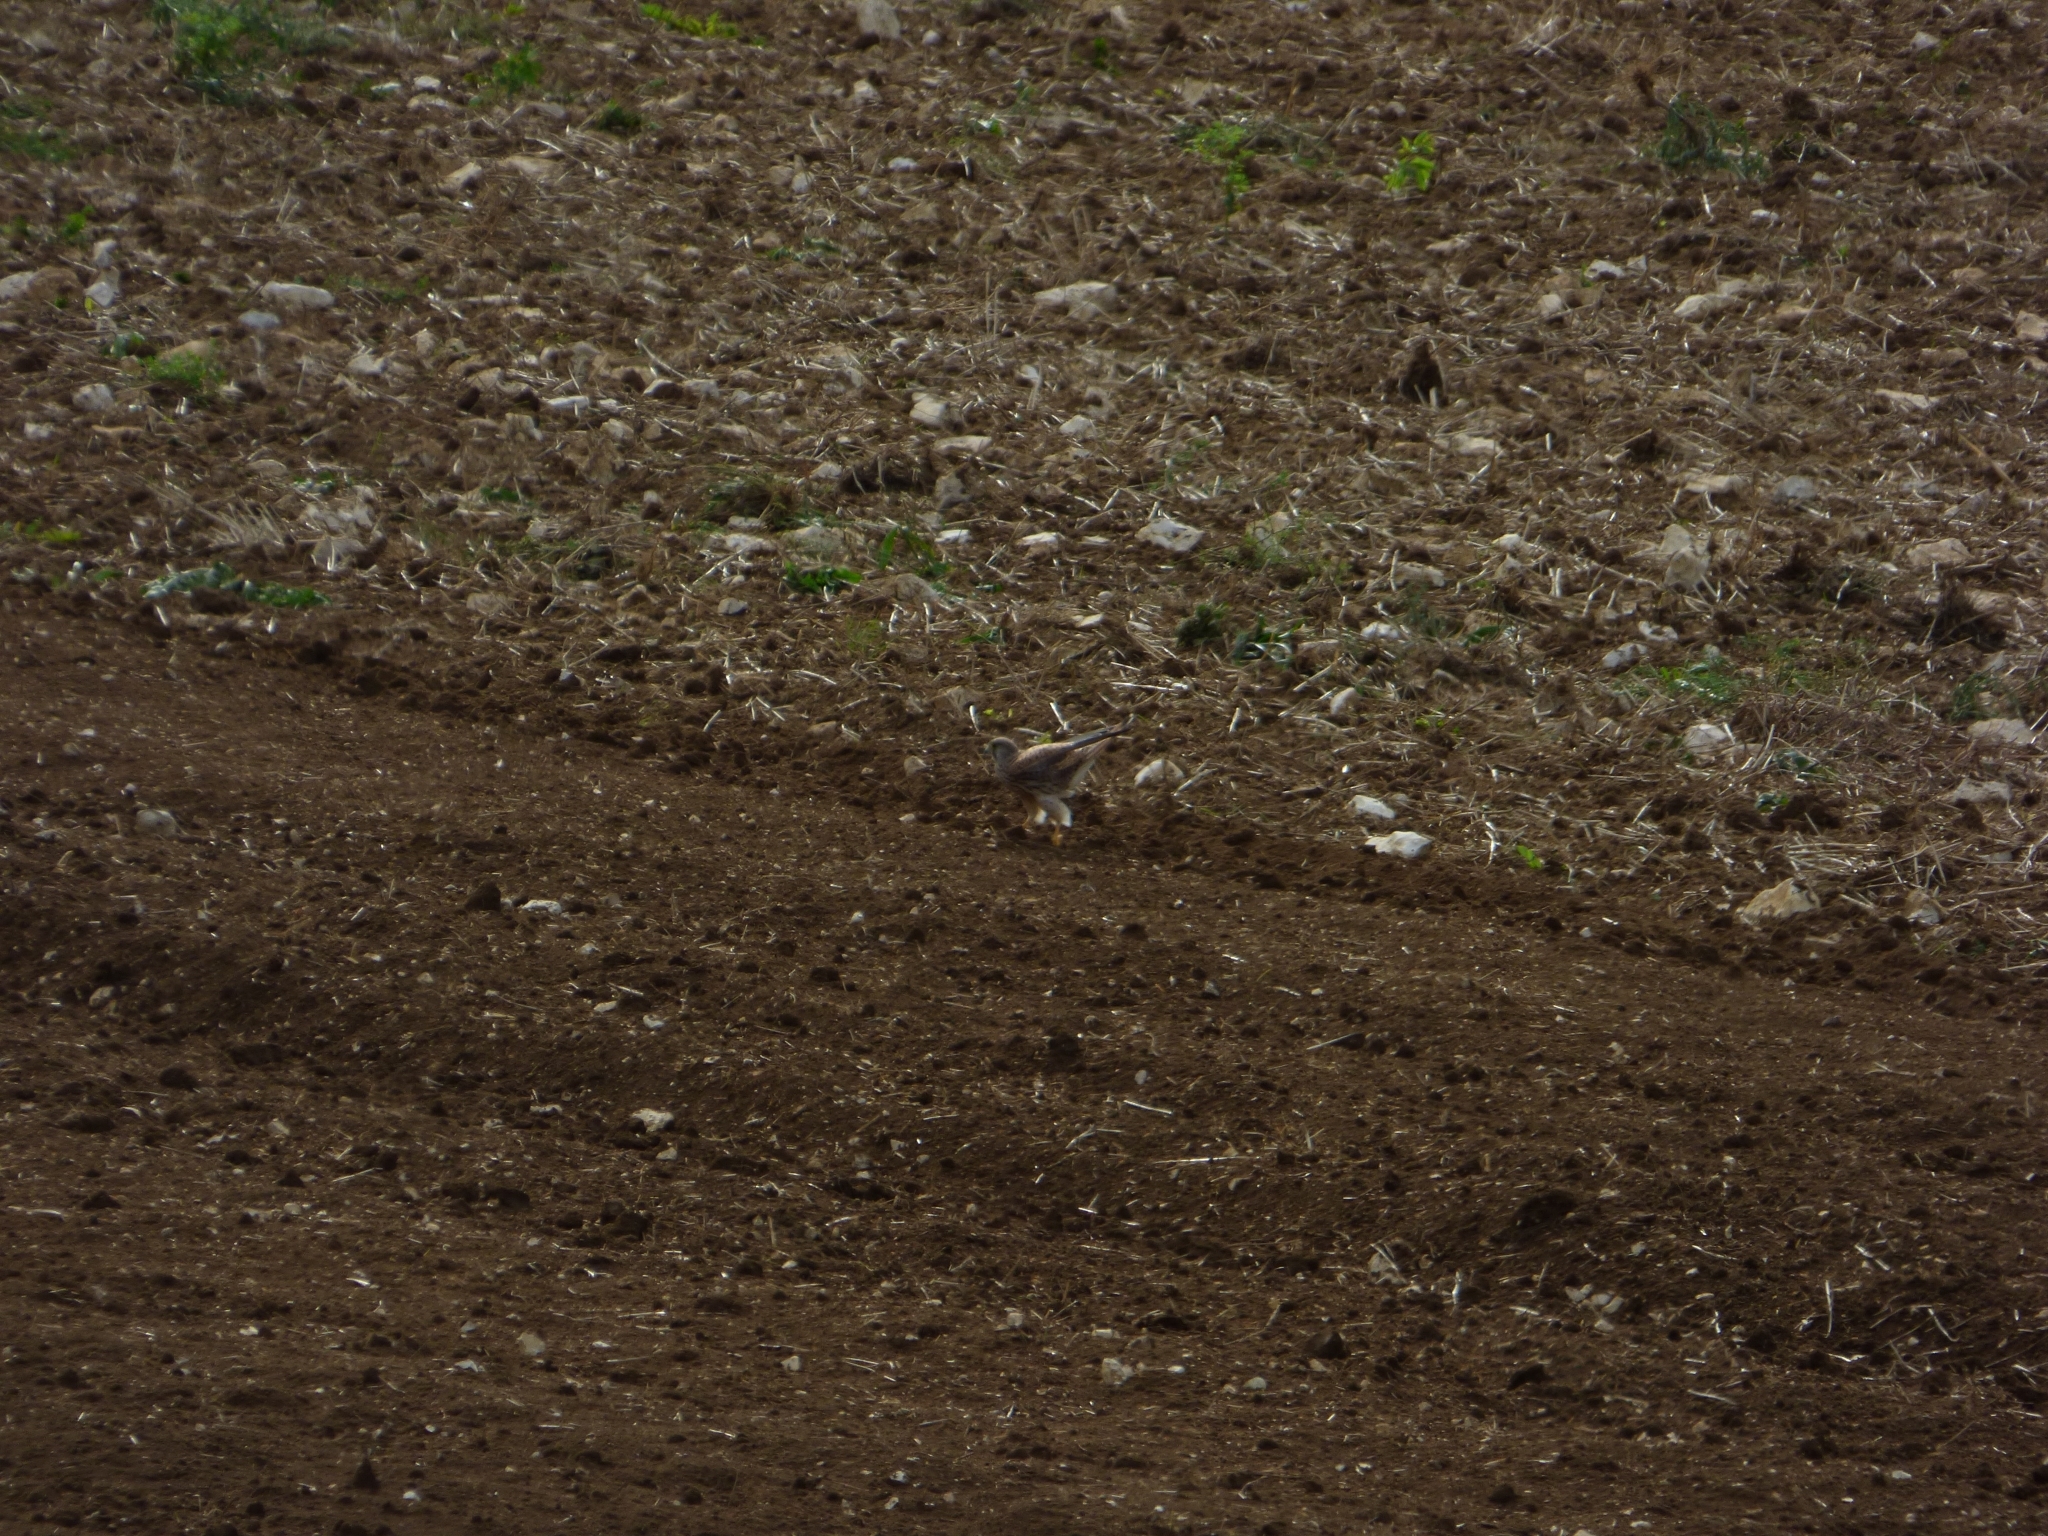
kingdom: Animalia
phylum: Chordata
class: Aves
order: Falconiformes
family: Falconidae
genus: Falco
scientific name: Falco tinnunculus
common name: Common kestrel
